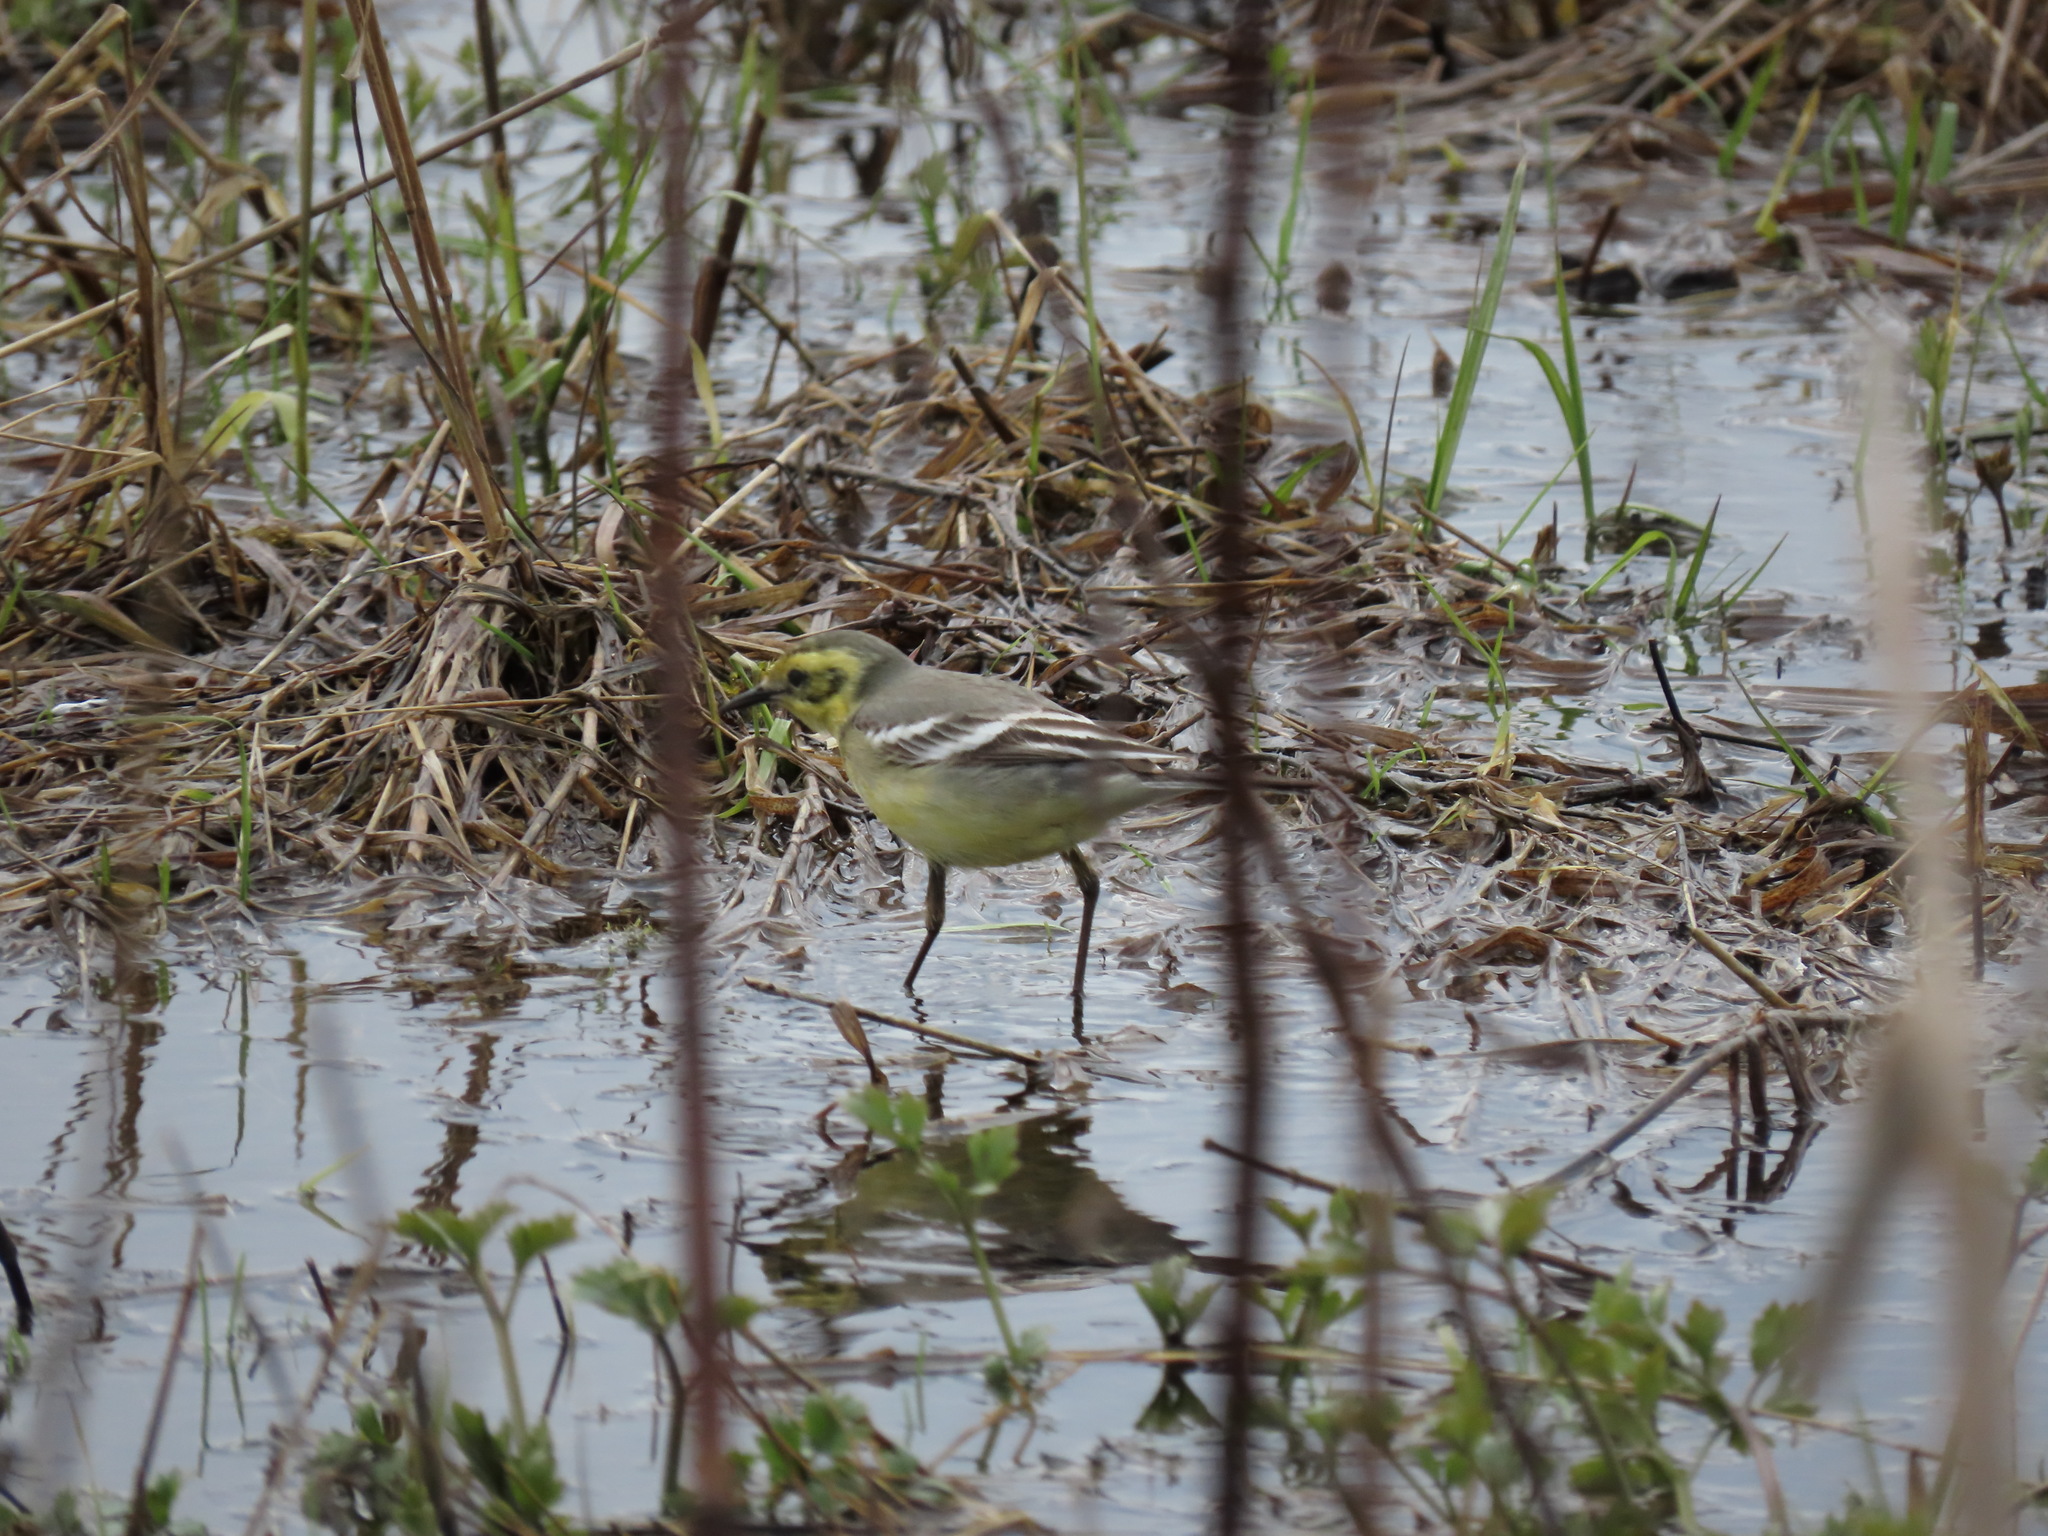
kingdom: Animalia
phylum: Chordata
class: Aves
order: Passeriformes
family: Motacillidae
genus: Motacilla
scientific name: Motacilla citreola
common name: Citrine wagtail
